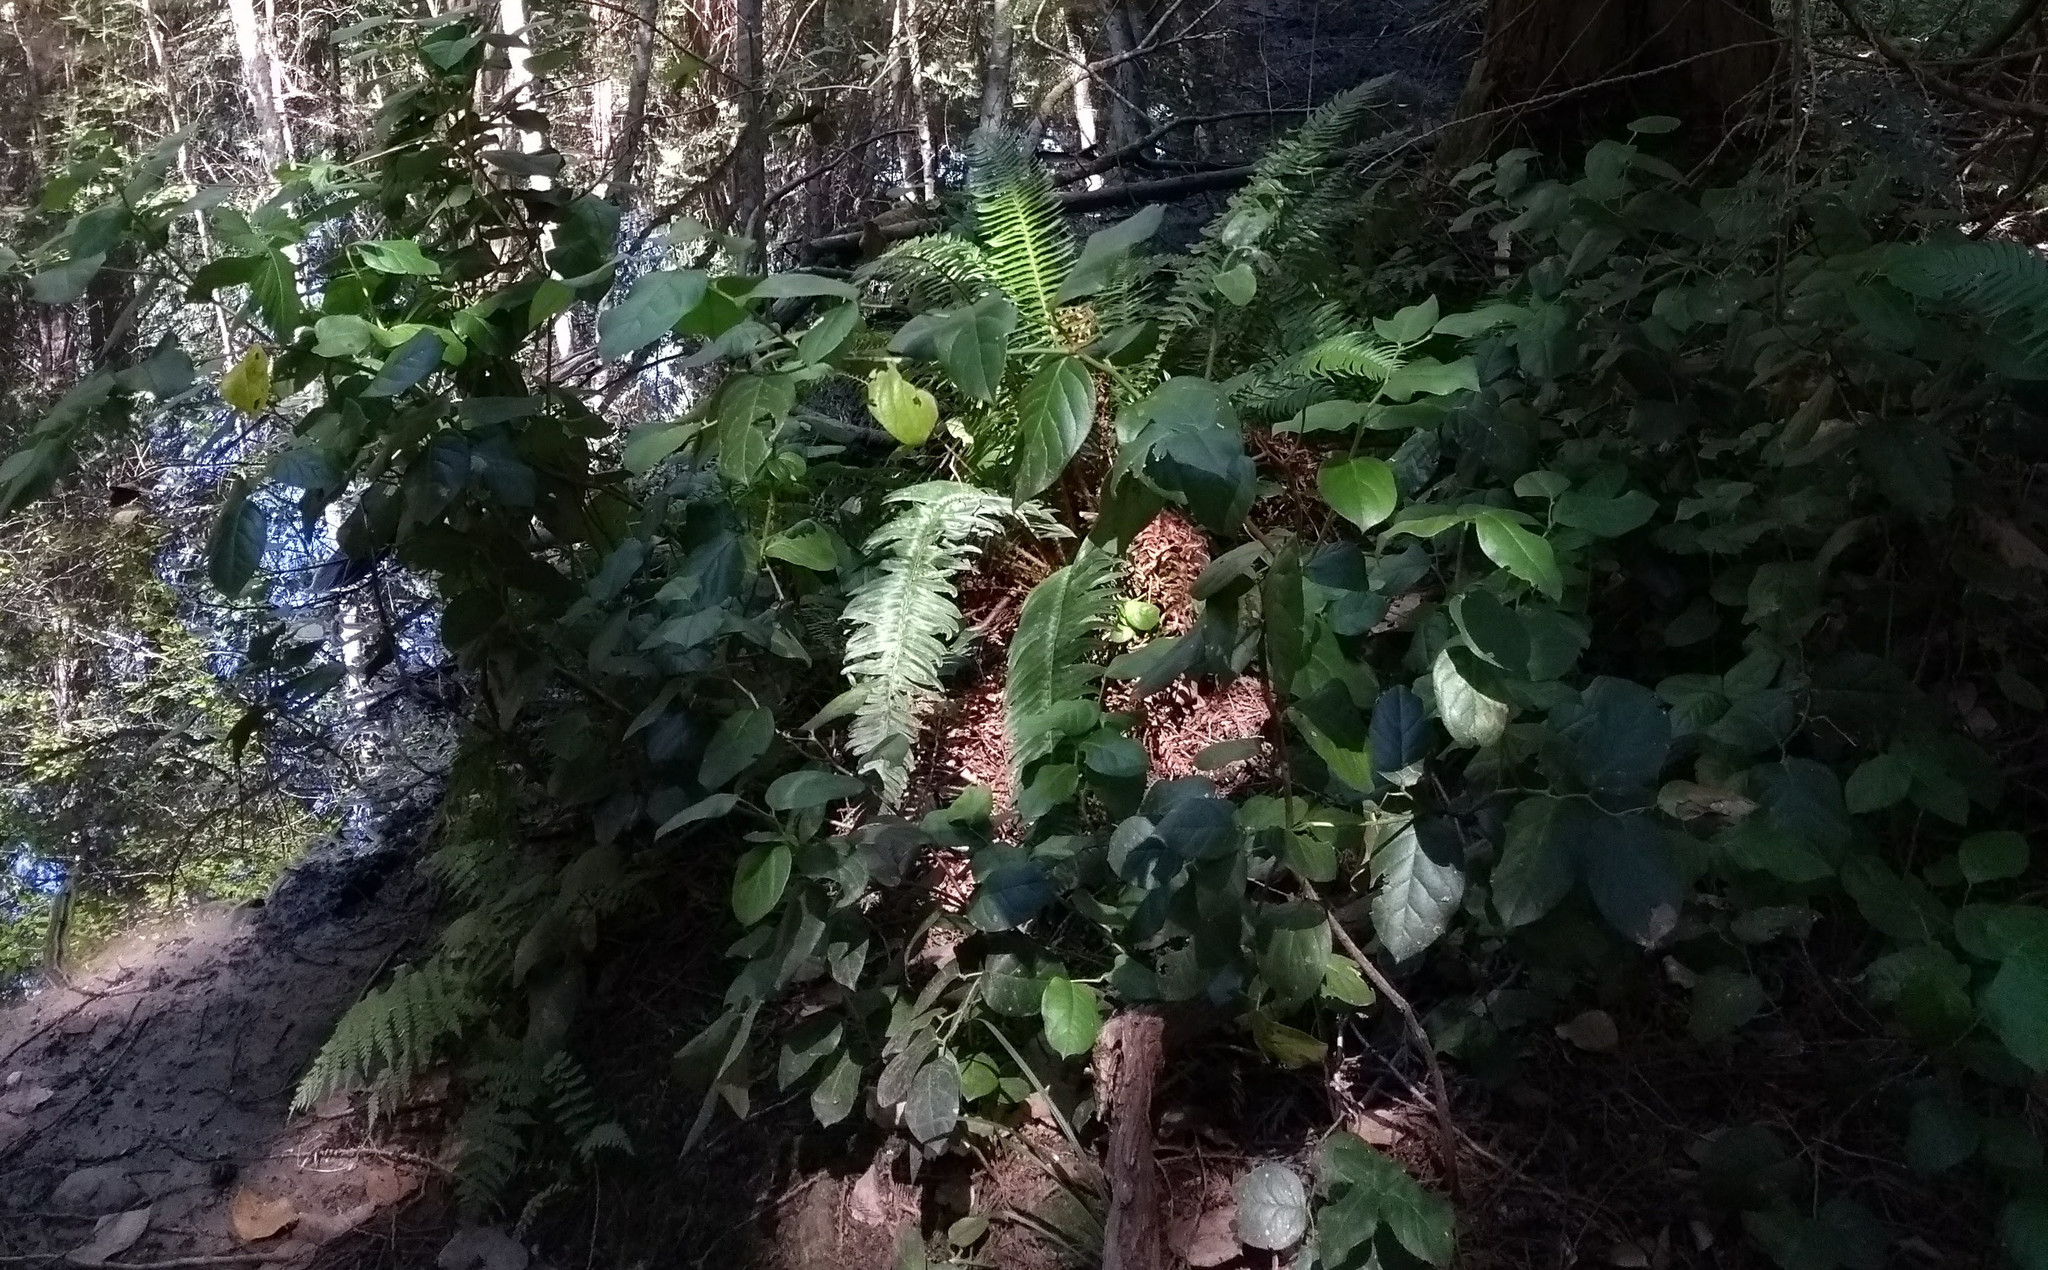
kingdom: Plantae
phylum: Tracheophyta
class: Magnoliopsida
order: Ericales
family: Ericaceae
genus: Gaultheria
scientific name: Gaultheria shallon
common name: Shallon
